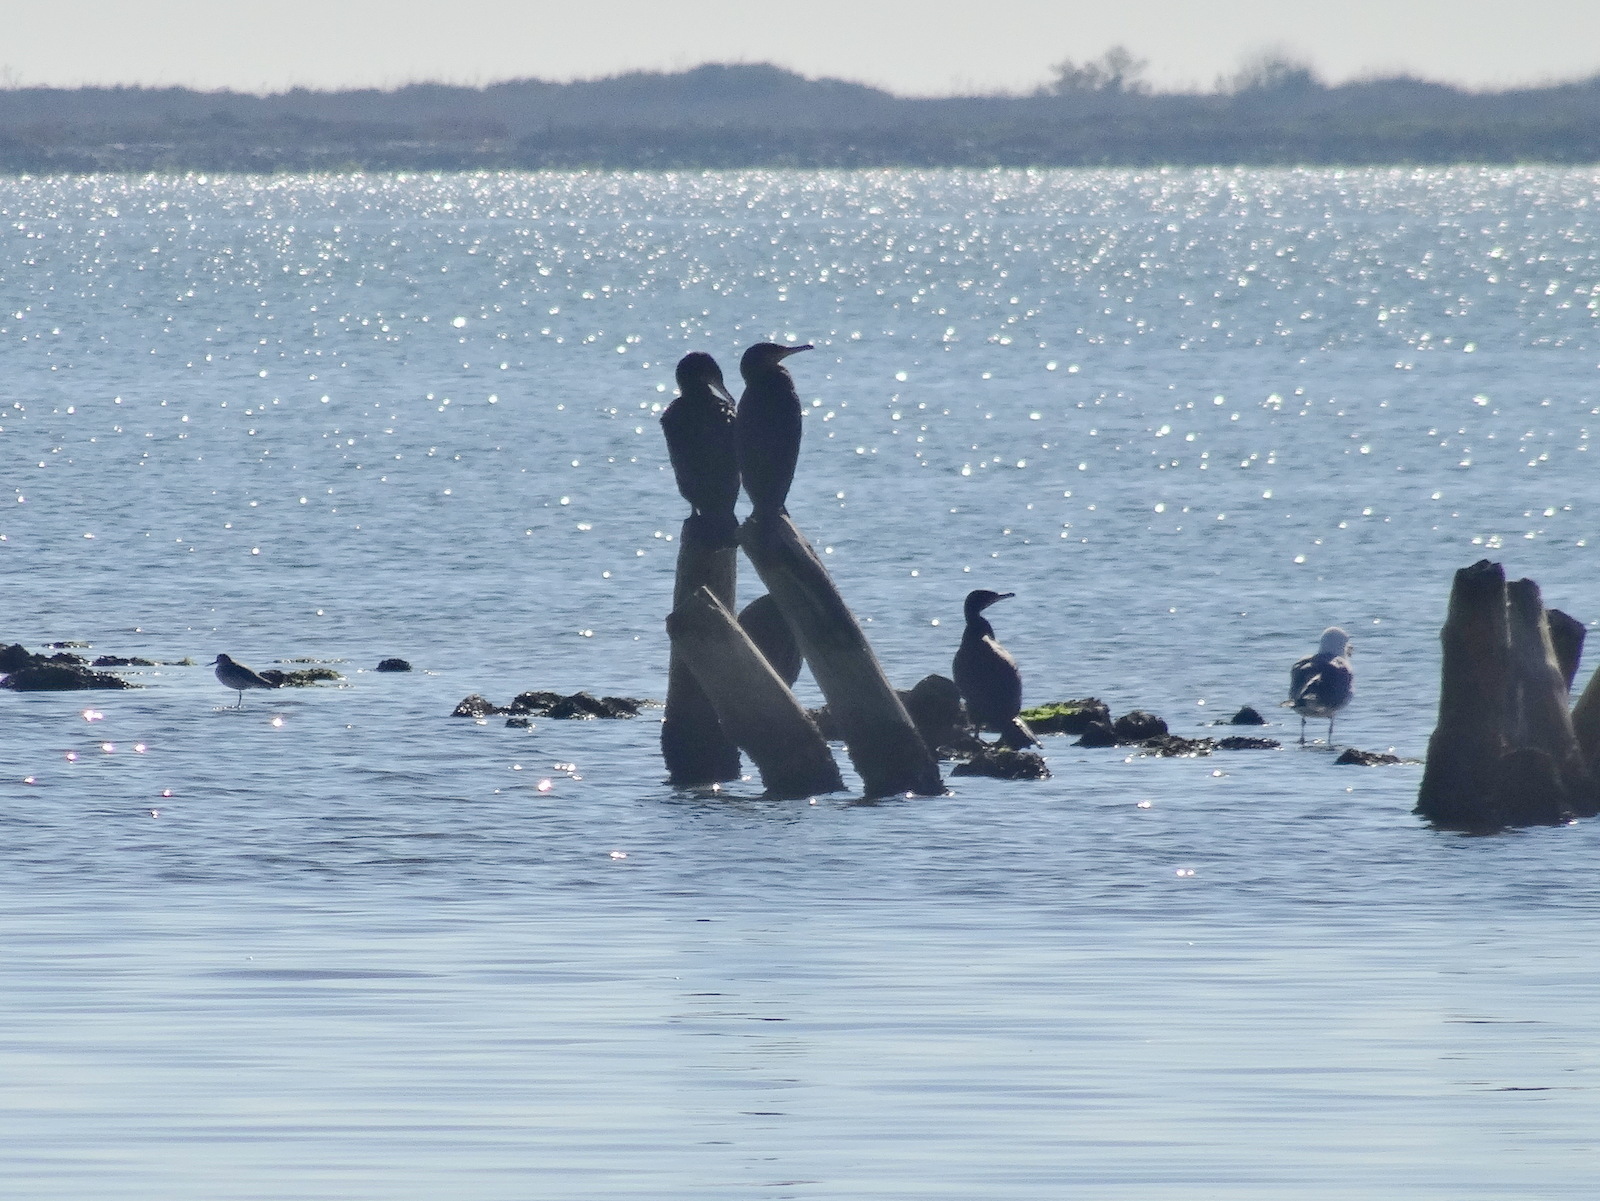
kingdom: Animalia
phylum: Chordata
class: Aves
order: Suliformes
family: Phalacrocoracidae
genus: Phalacrocorax
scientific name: Phalacrocorax carbo
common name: Great cormorant
